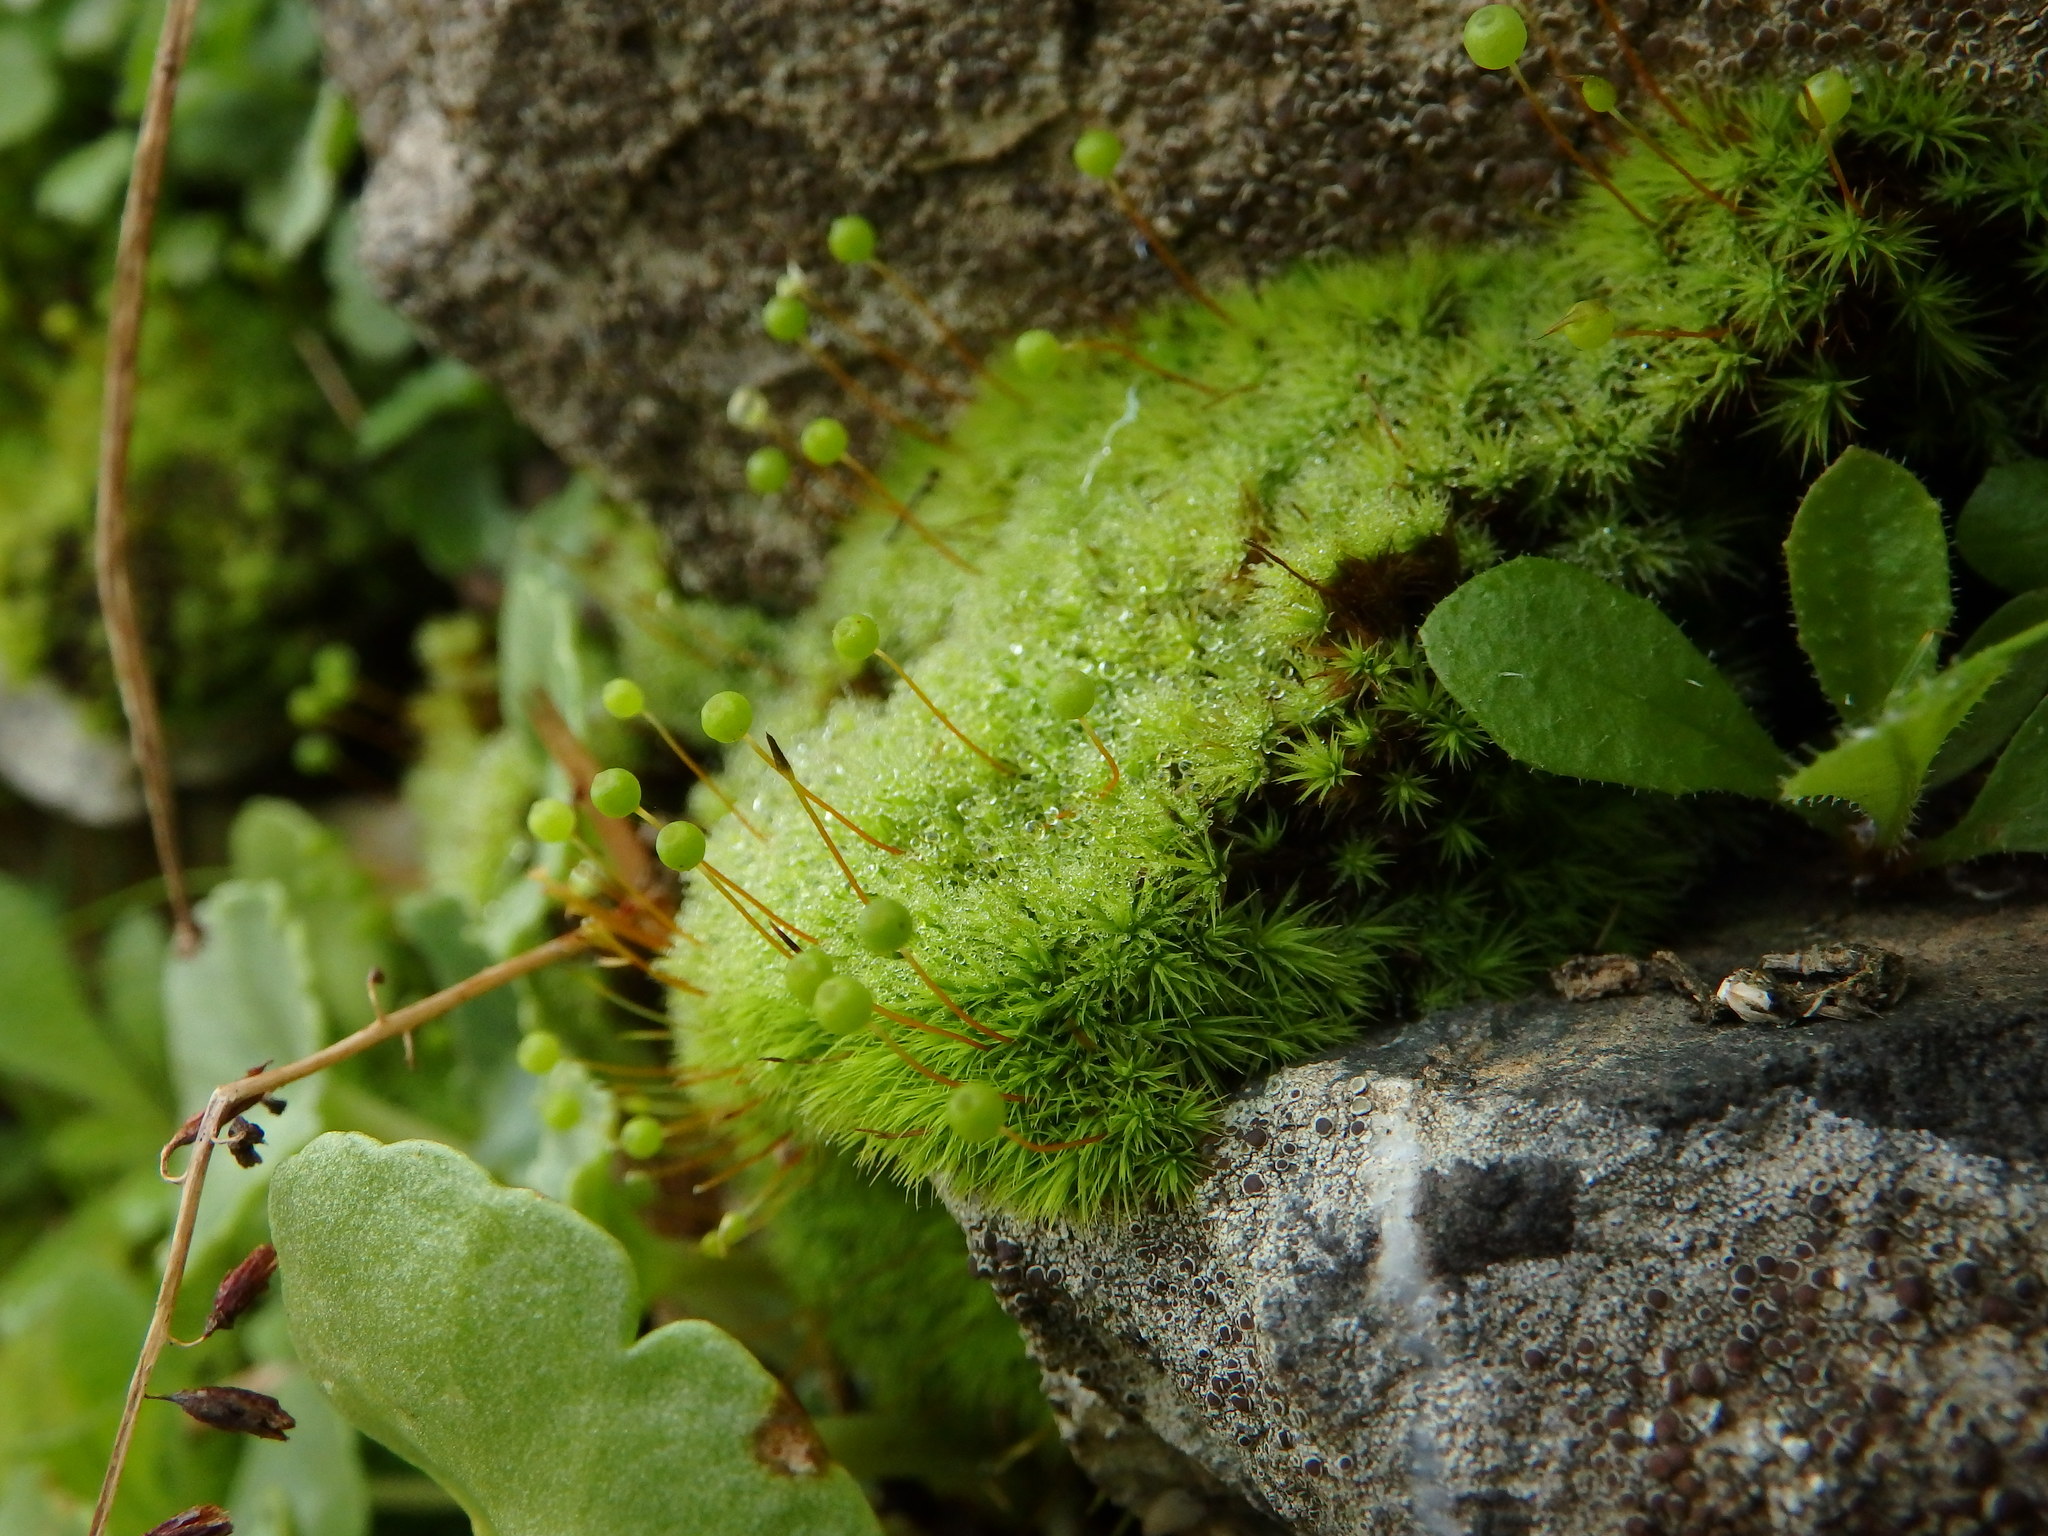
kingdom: Plantae
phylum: Bryophyta
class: Bryopsida
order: Bartramiales
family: Bartramiaceae
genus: Bartramia
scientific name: Bartramia ithyphylla
